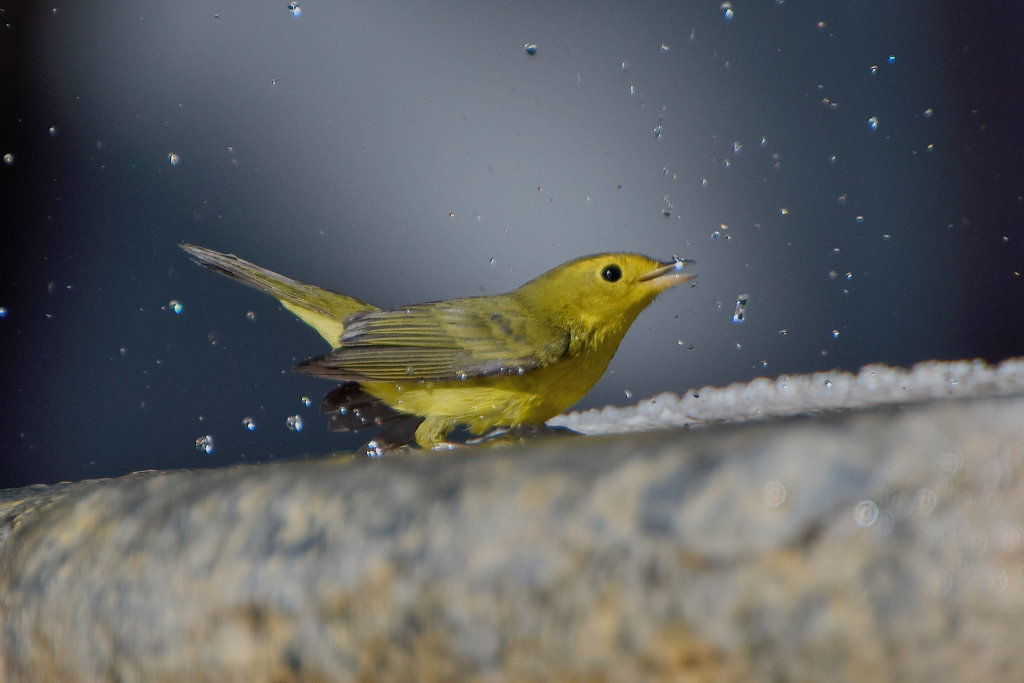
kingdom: Animalia
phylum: Chordata
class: Aves
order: Passeriformes
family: Parulidae
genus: Setophaga
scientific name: Setophaga petechia
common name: Yellow warbler
